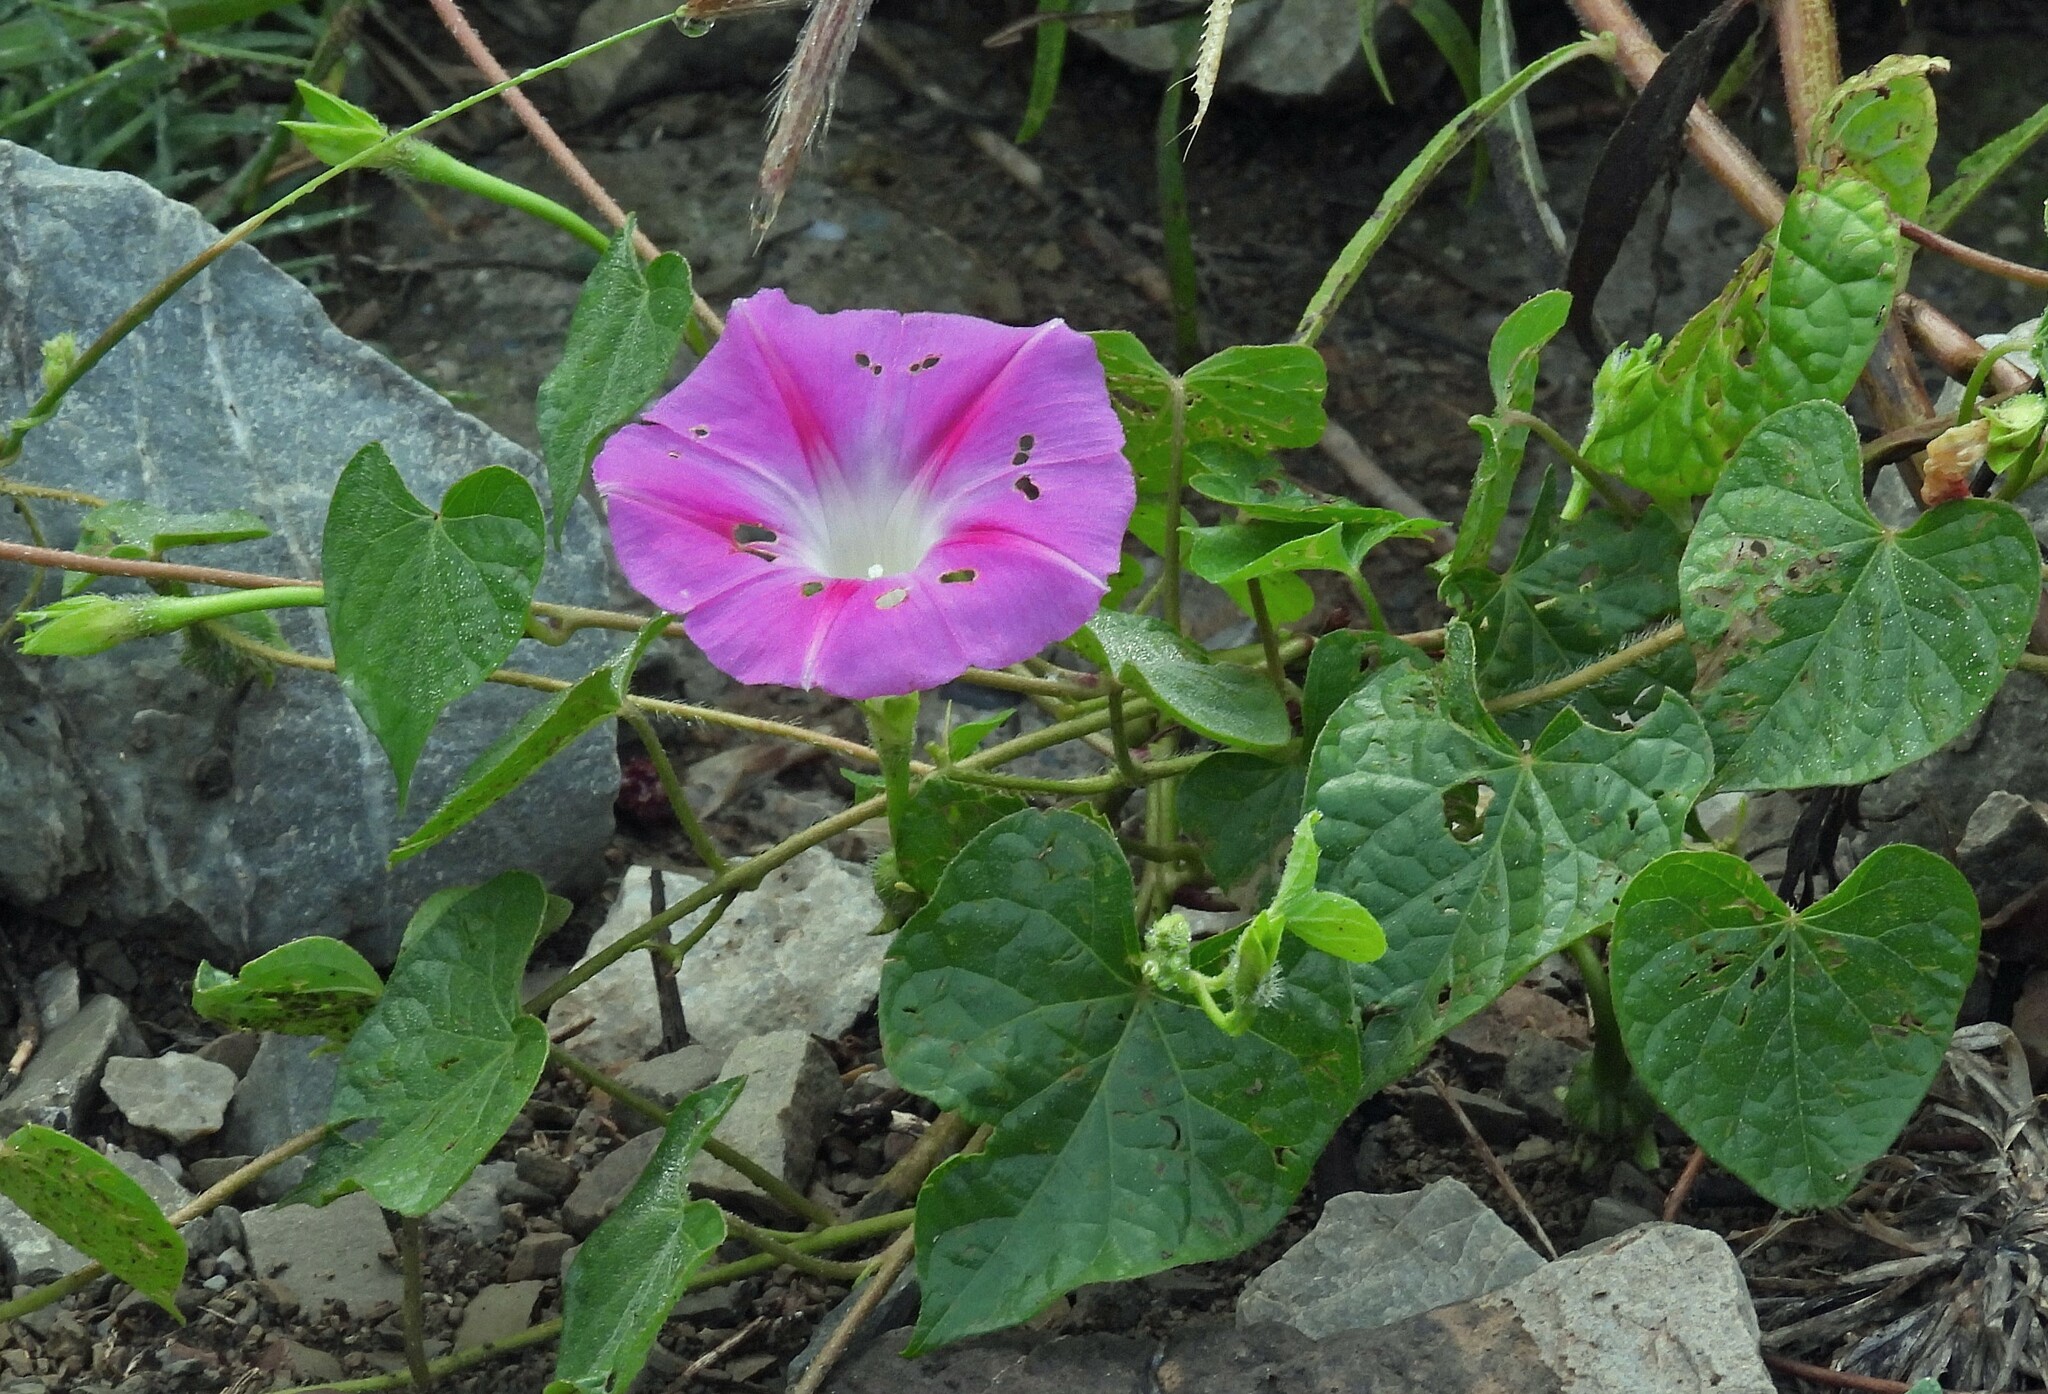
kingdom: Plantae
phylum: Tracheophyta
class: Magnoliopsida
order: Solanales
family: Convolvulaceae
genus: Ipomoea
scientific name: Ipomoea purpurea
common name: Common morning-glory
